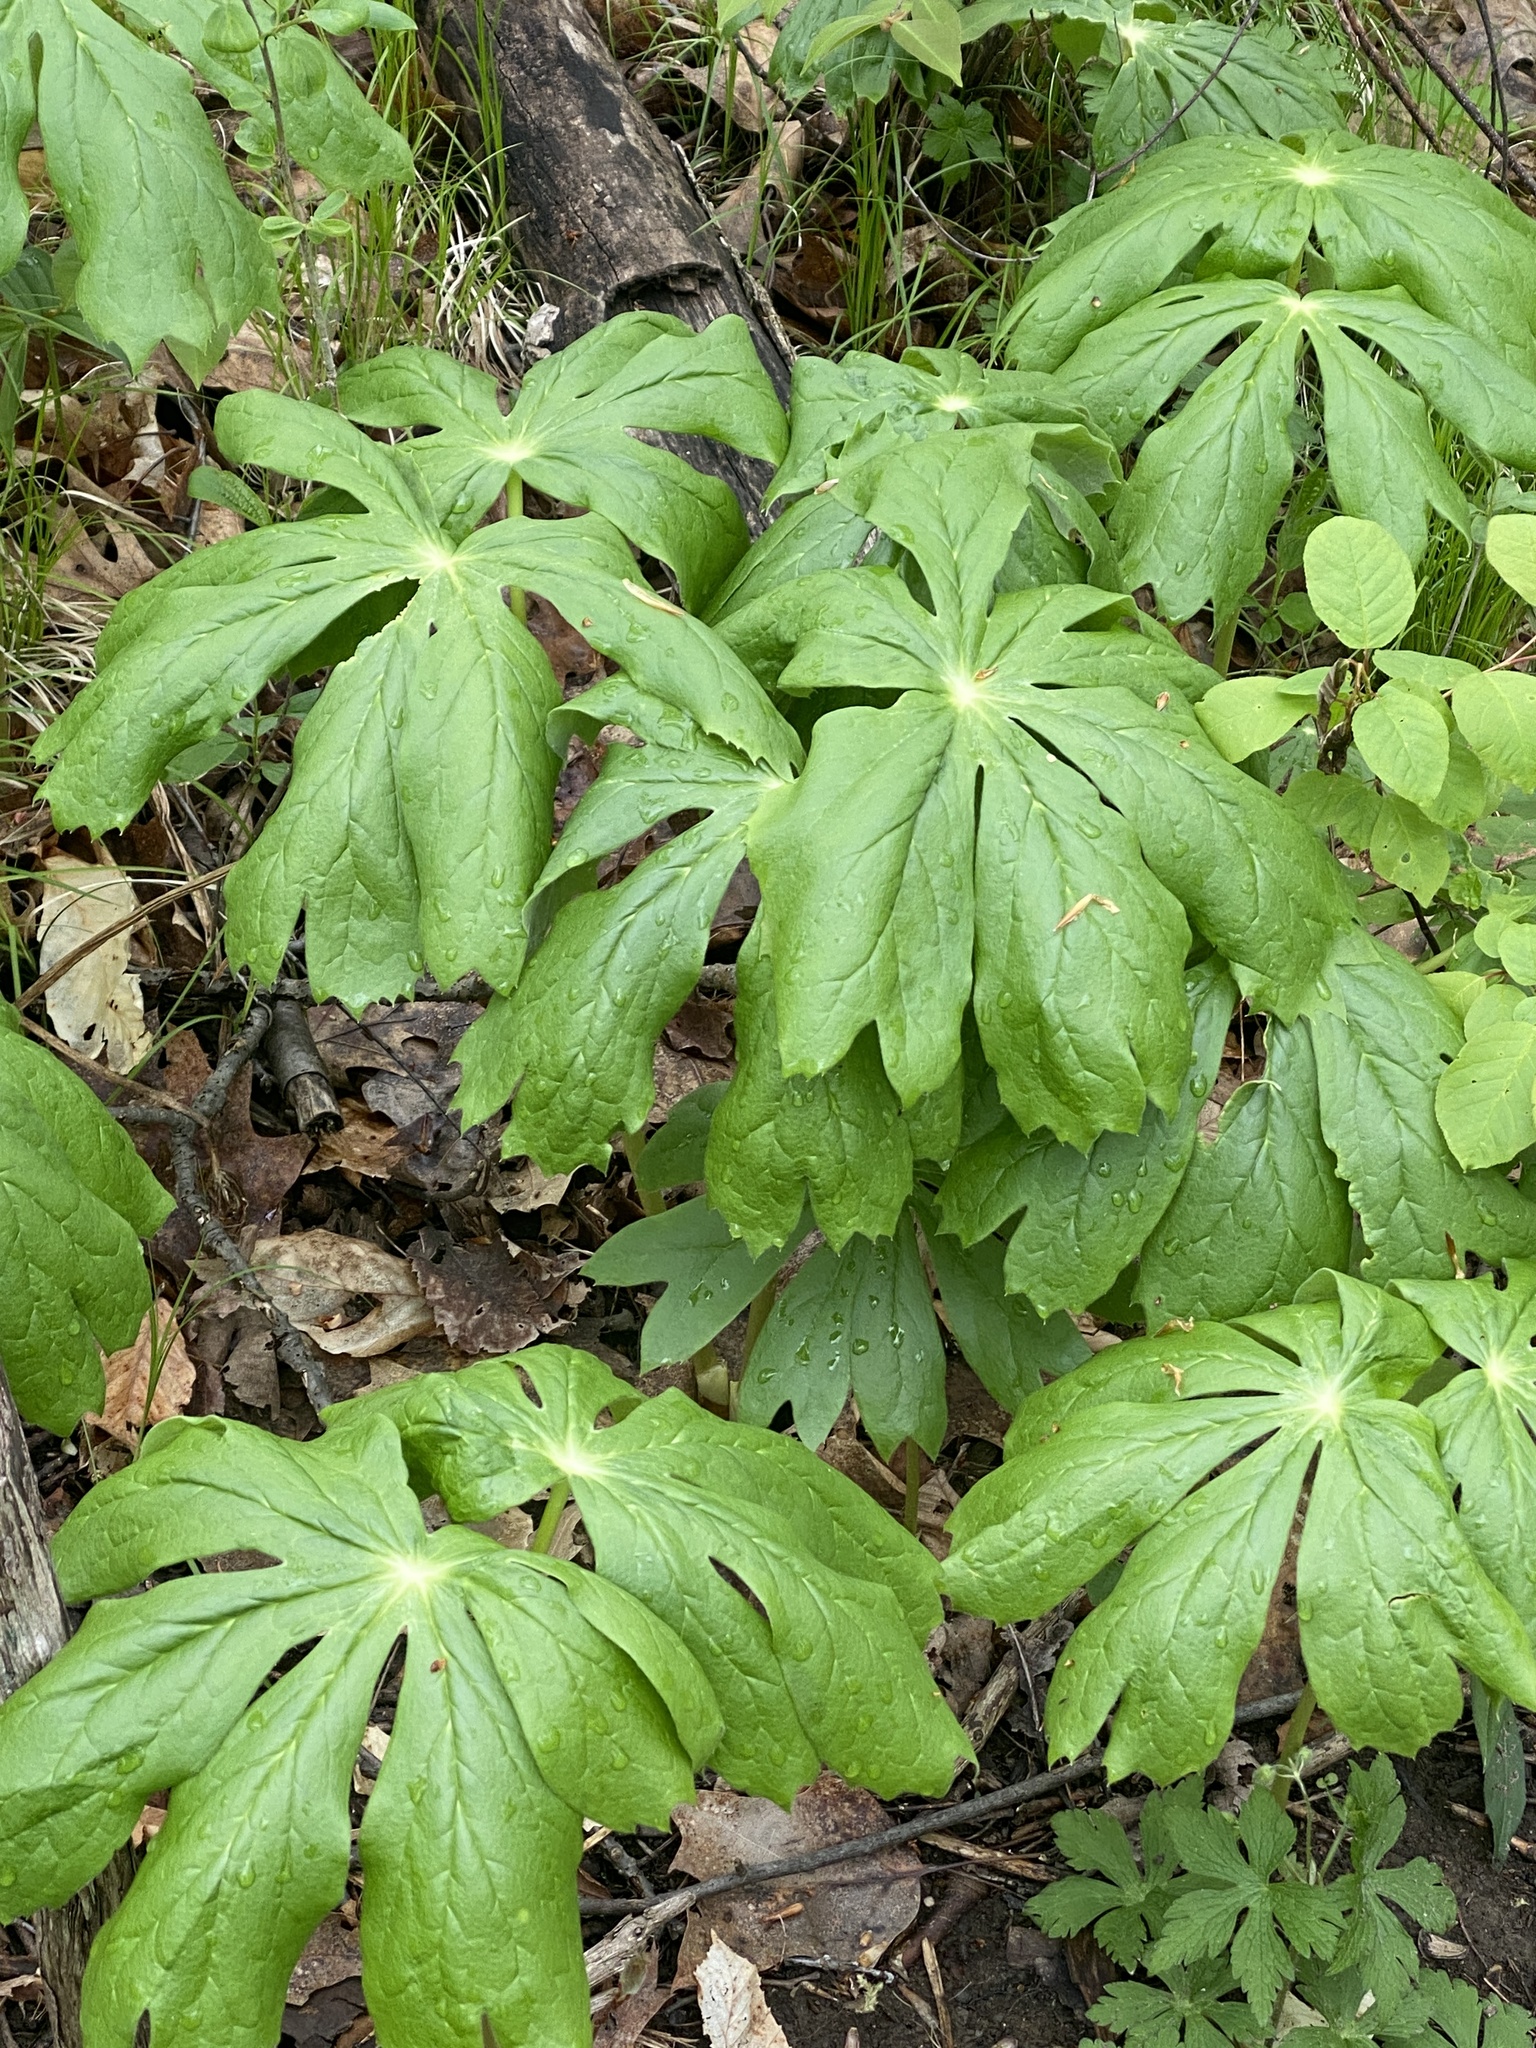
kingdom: Plantae
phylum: Tracheophyta
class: Magnoliopsida
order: Ranunculales
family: Berberidaceae
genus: Podophyllum
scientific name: Podophyllum peltatum
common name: Wild mandrake
